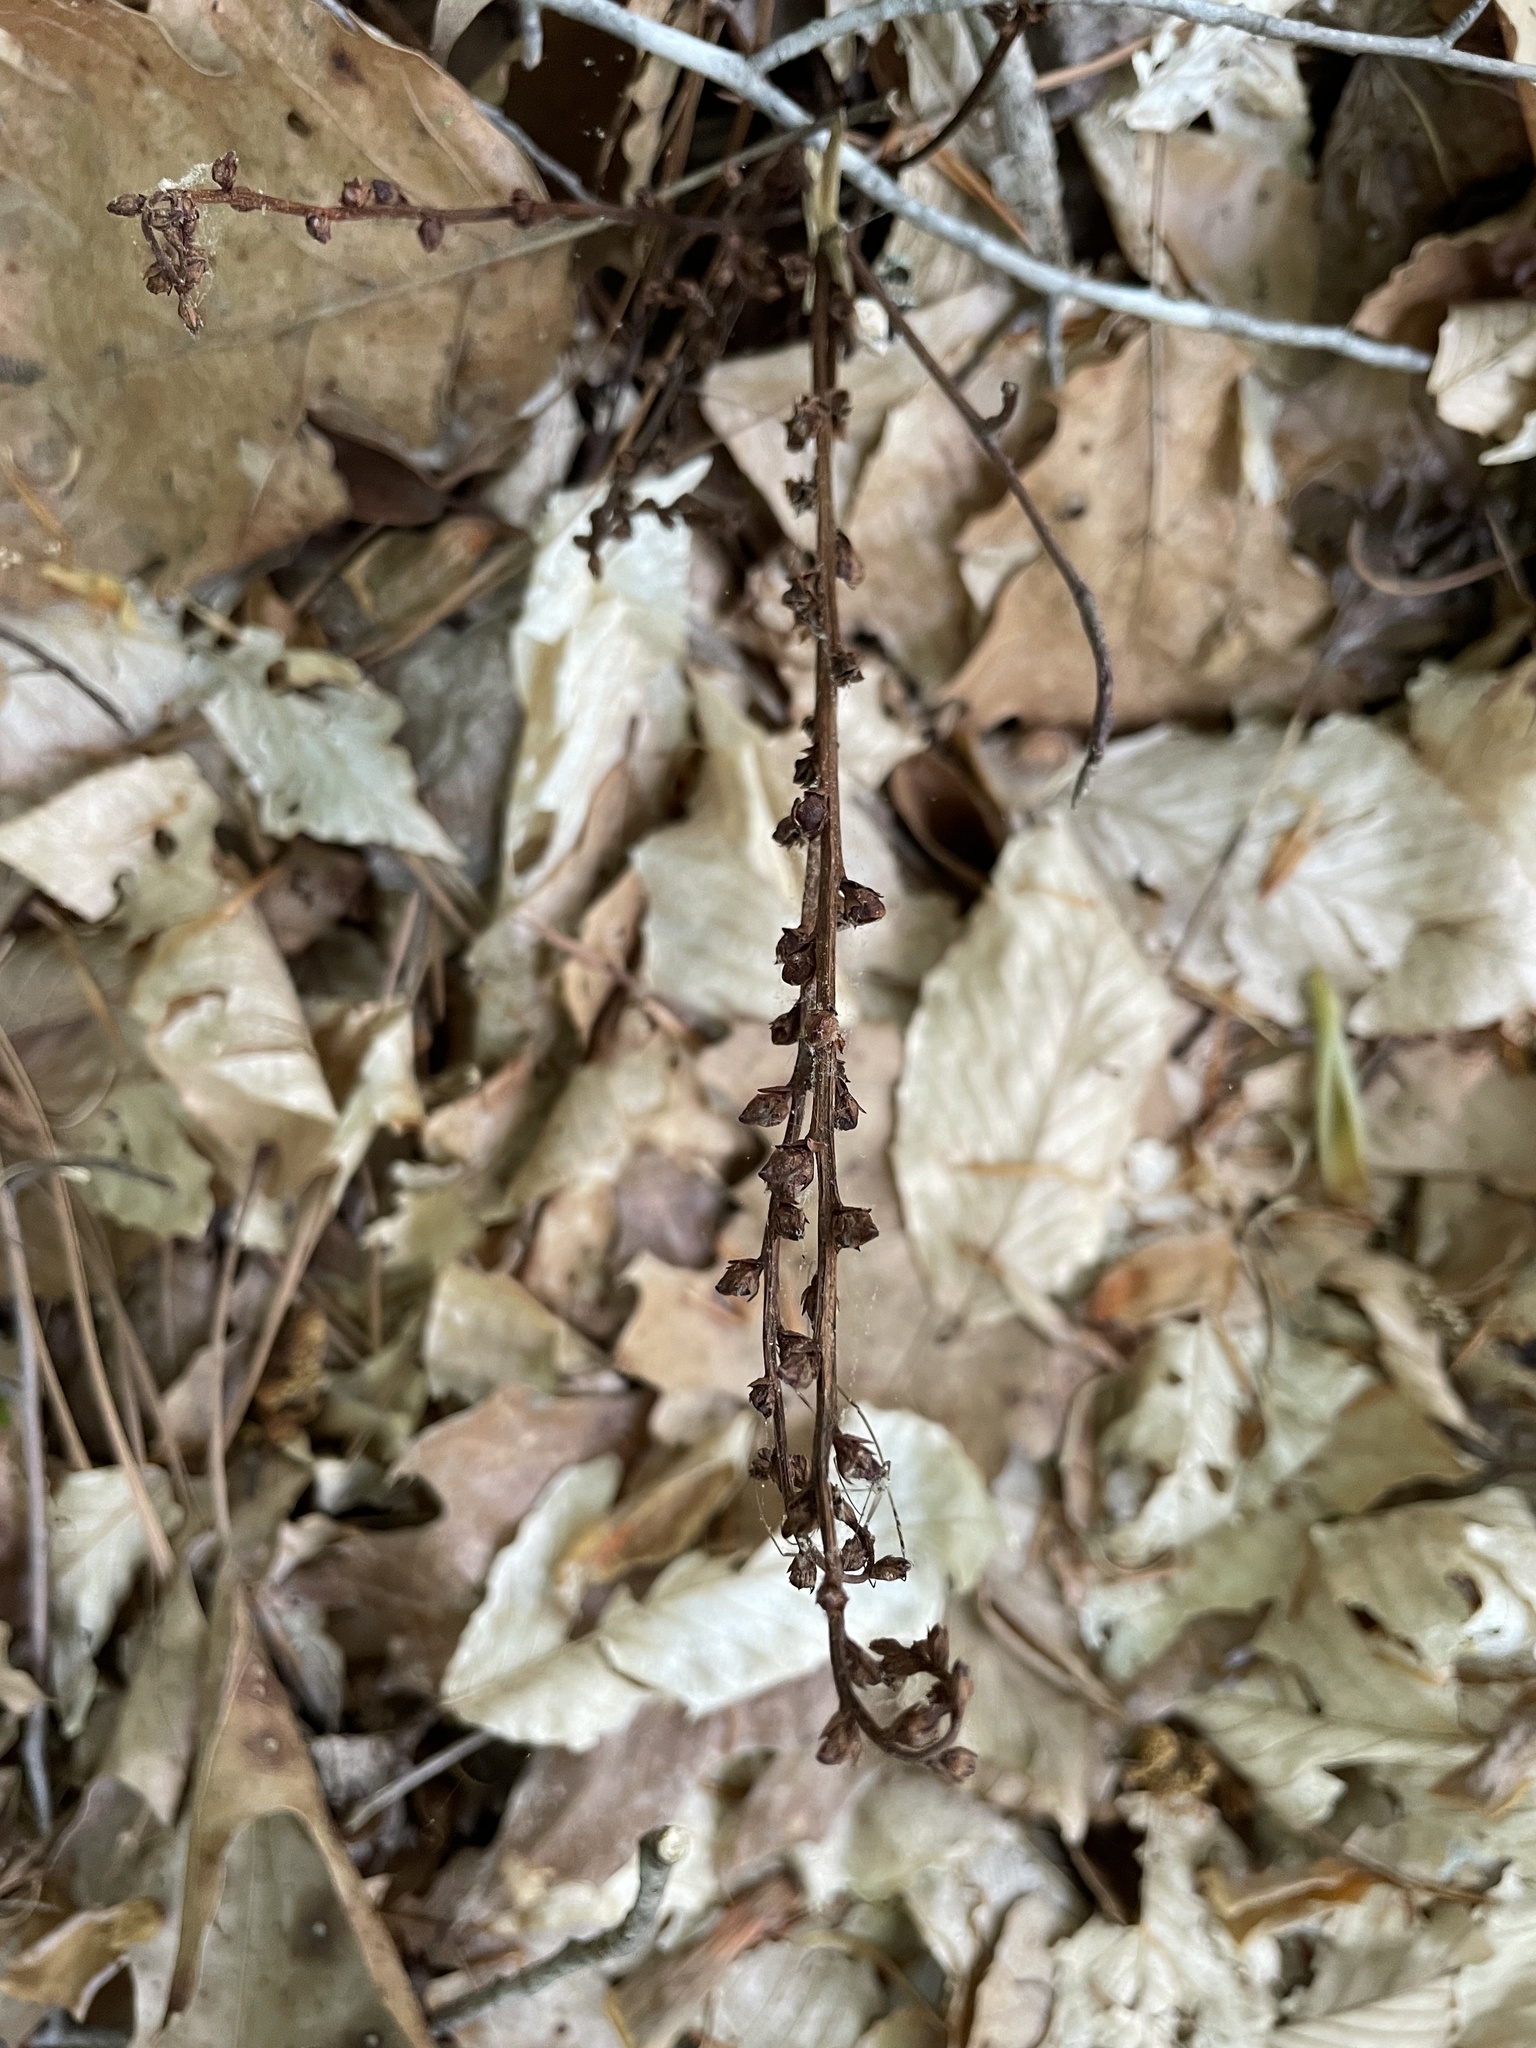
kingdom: Plantae
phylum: Tracheophyta
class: Magnoliopsida
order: Lamiales
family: Orobanchaceae
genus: Epifagus
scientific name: Epifagus virginiana
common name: Beechdrops
